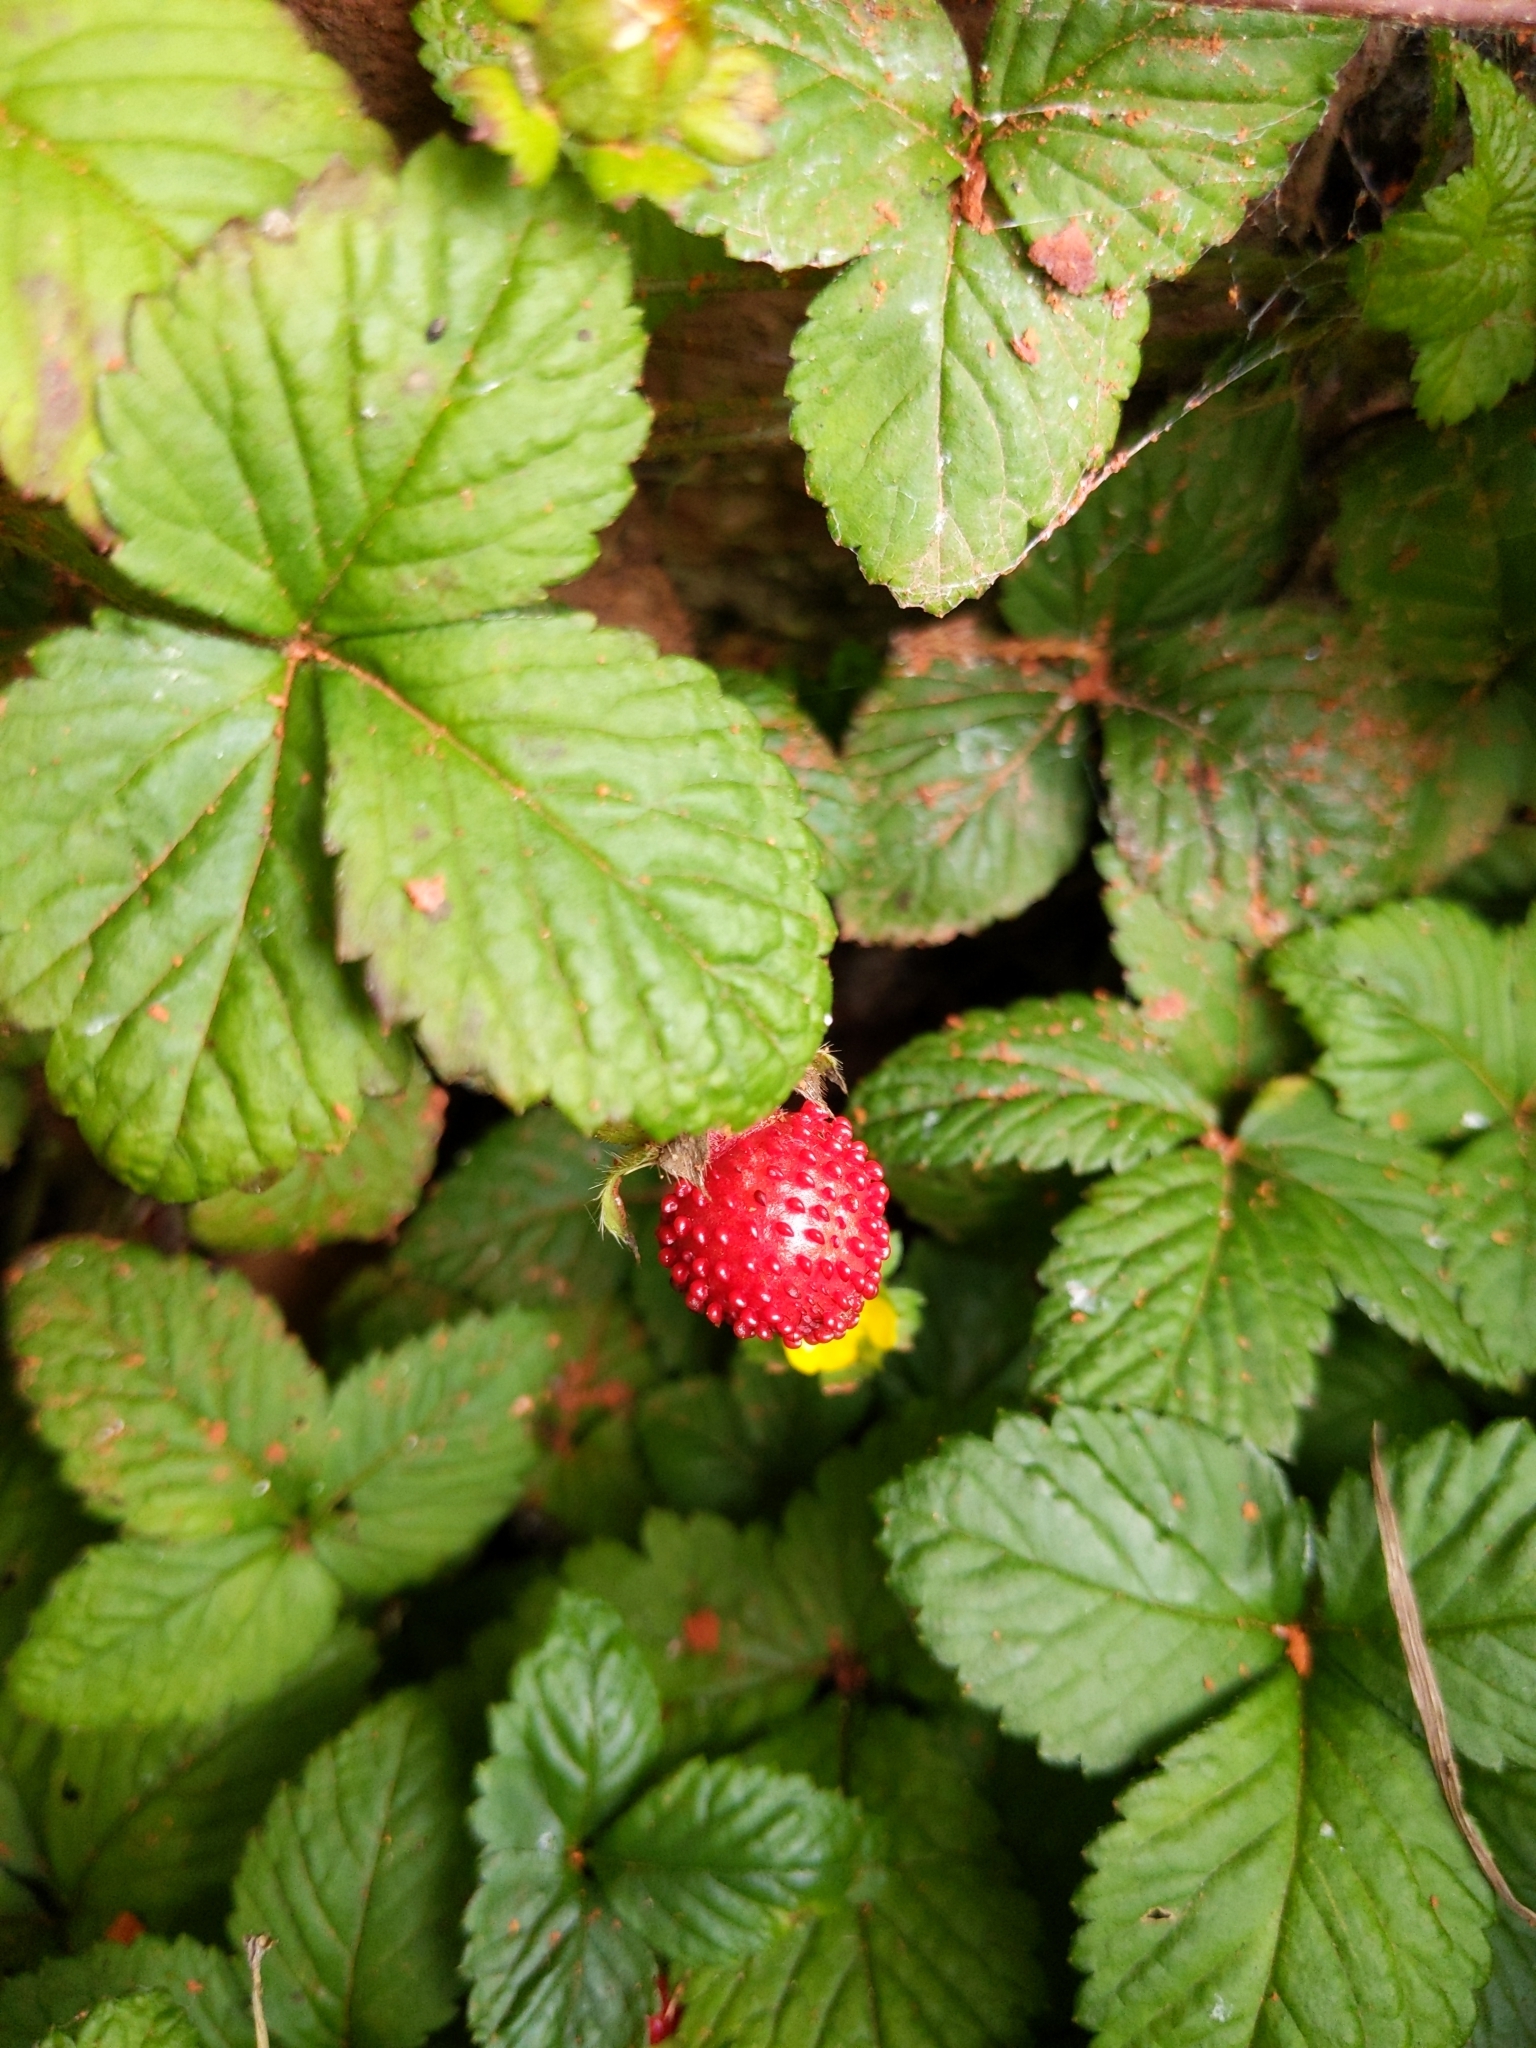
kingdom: Plantae
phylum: Tracheophyta
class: Magnoliopsida
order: Rosales
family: Rosaceae
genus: Potentilla
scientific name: Potentilla indica
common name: Yellow-flowered strawberry
